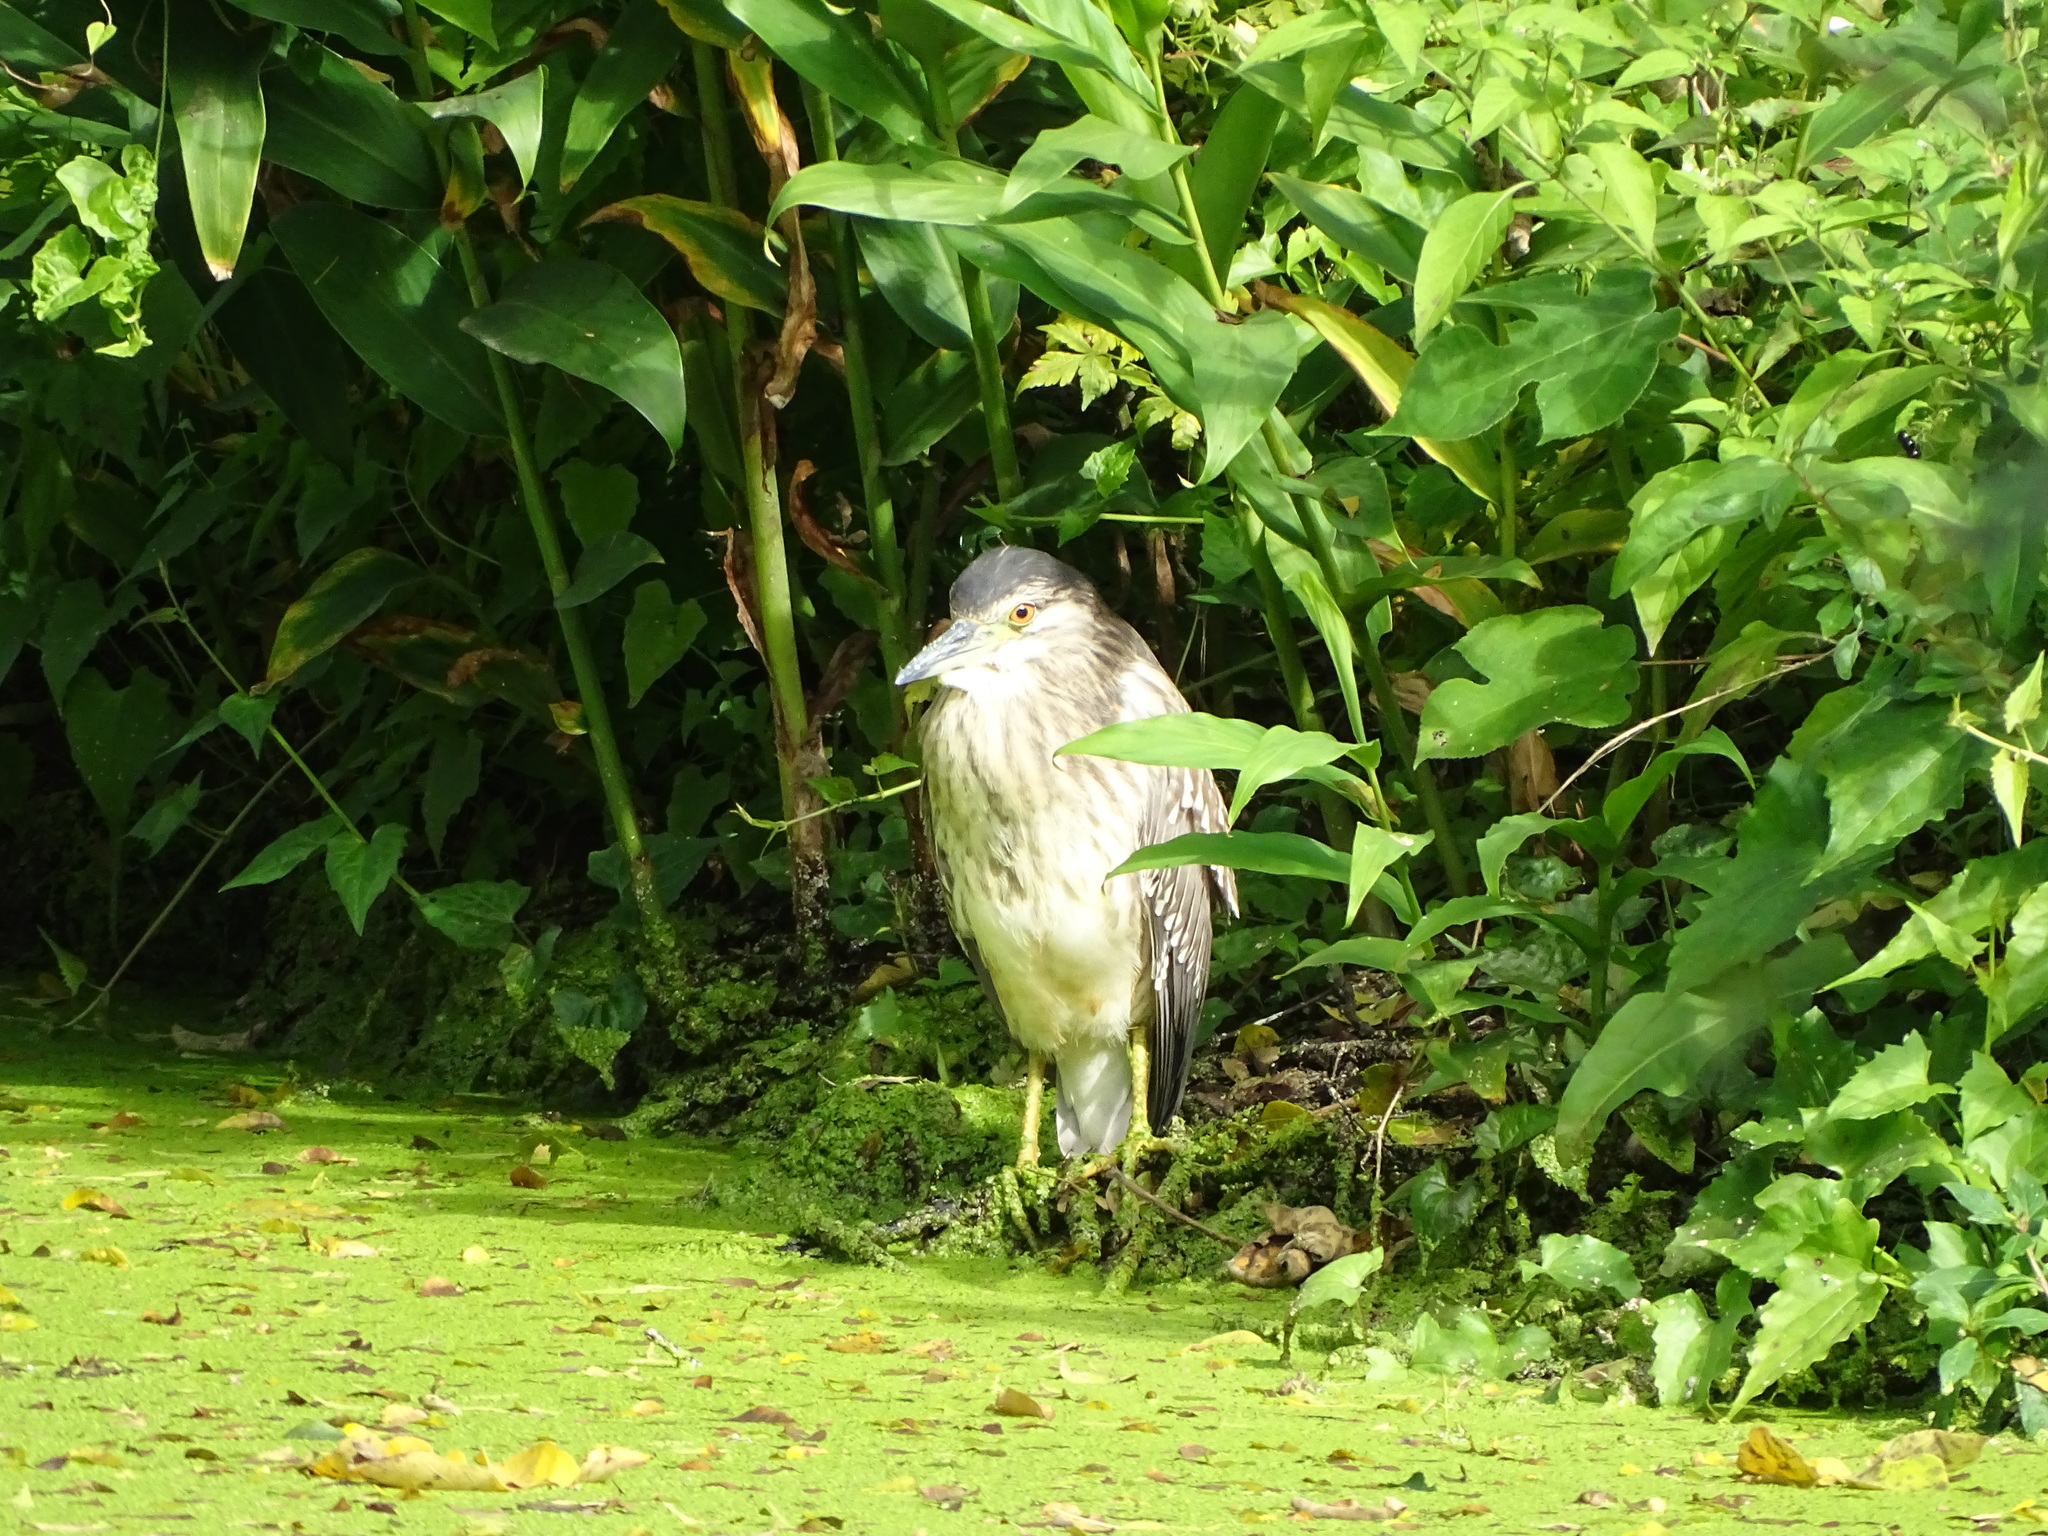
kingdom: Animalia
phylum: Chordata
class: Aves
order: Pelecaniformes
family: Ardeidae
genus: Nycticorax
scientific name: Nycticorax nycticorax
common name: Black-crowned night heron
